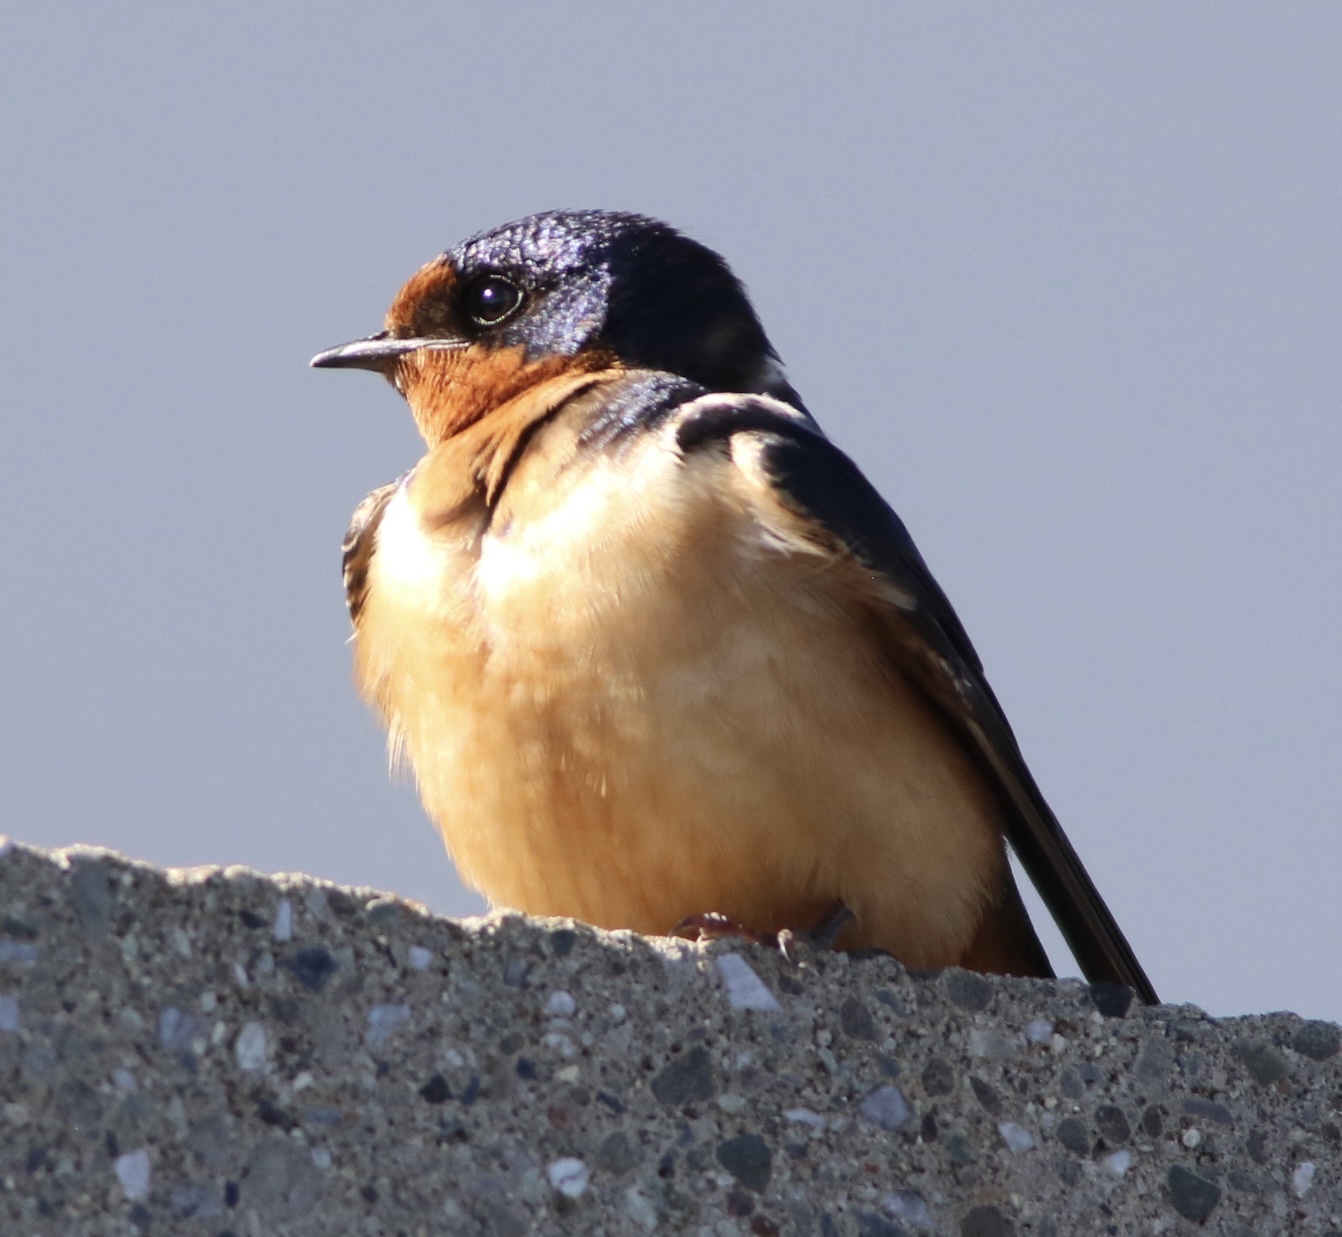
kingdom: Animalia
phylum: Chordata
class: Aves
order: Passeriformes
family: Hirundinidae
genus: Hirundo
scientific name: Hirundo rustica
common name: Barn swallow
